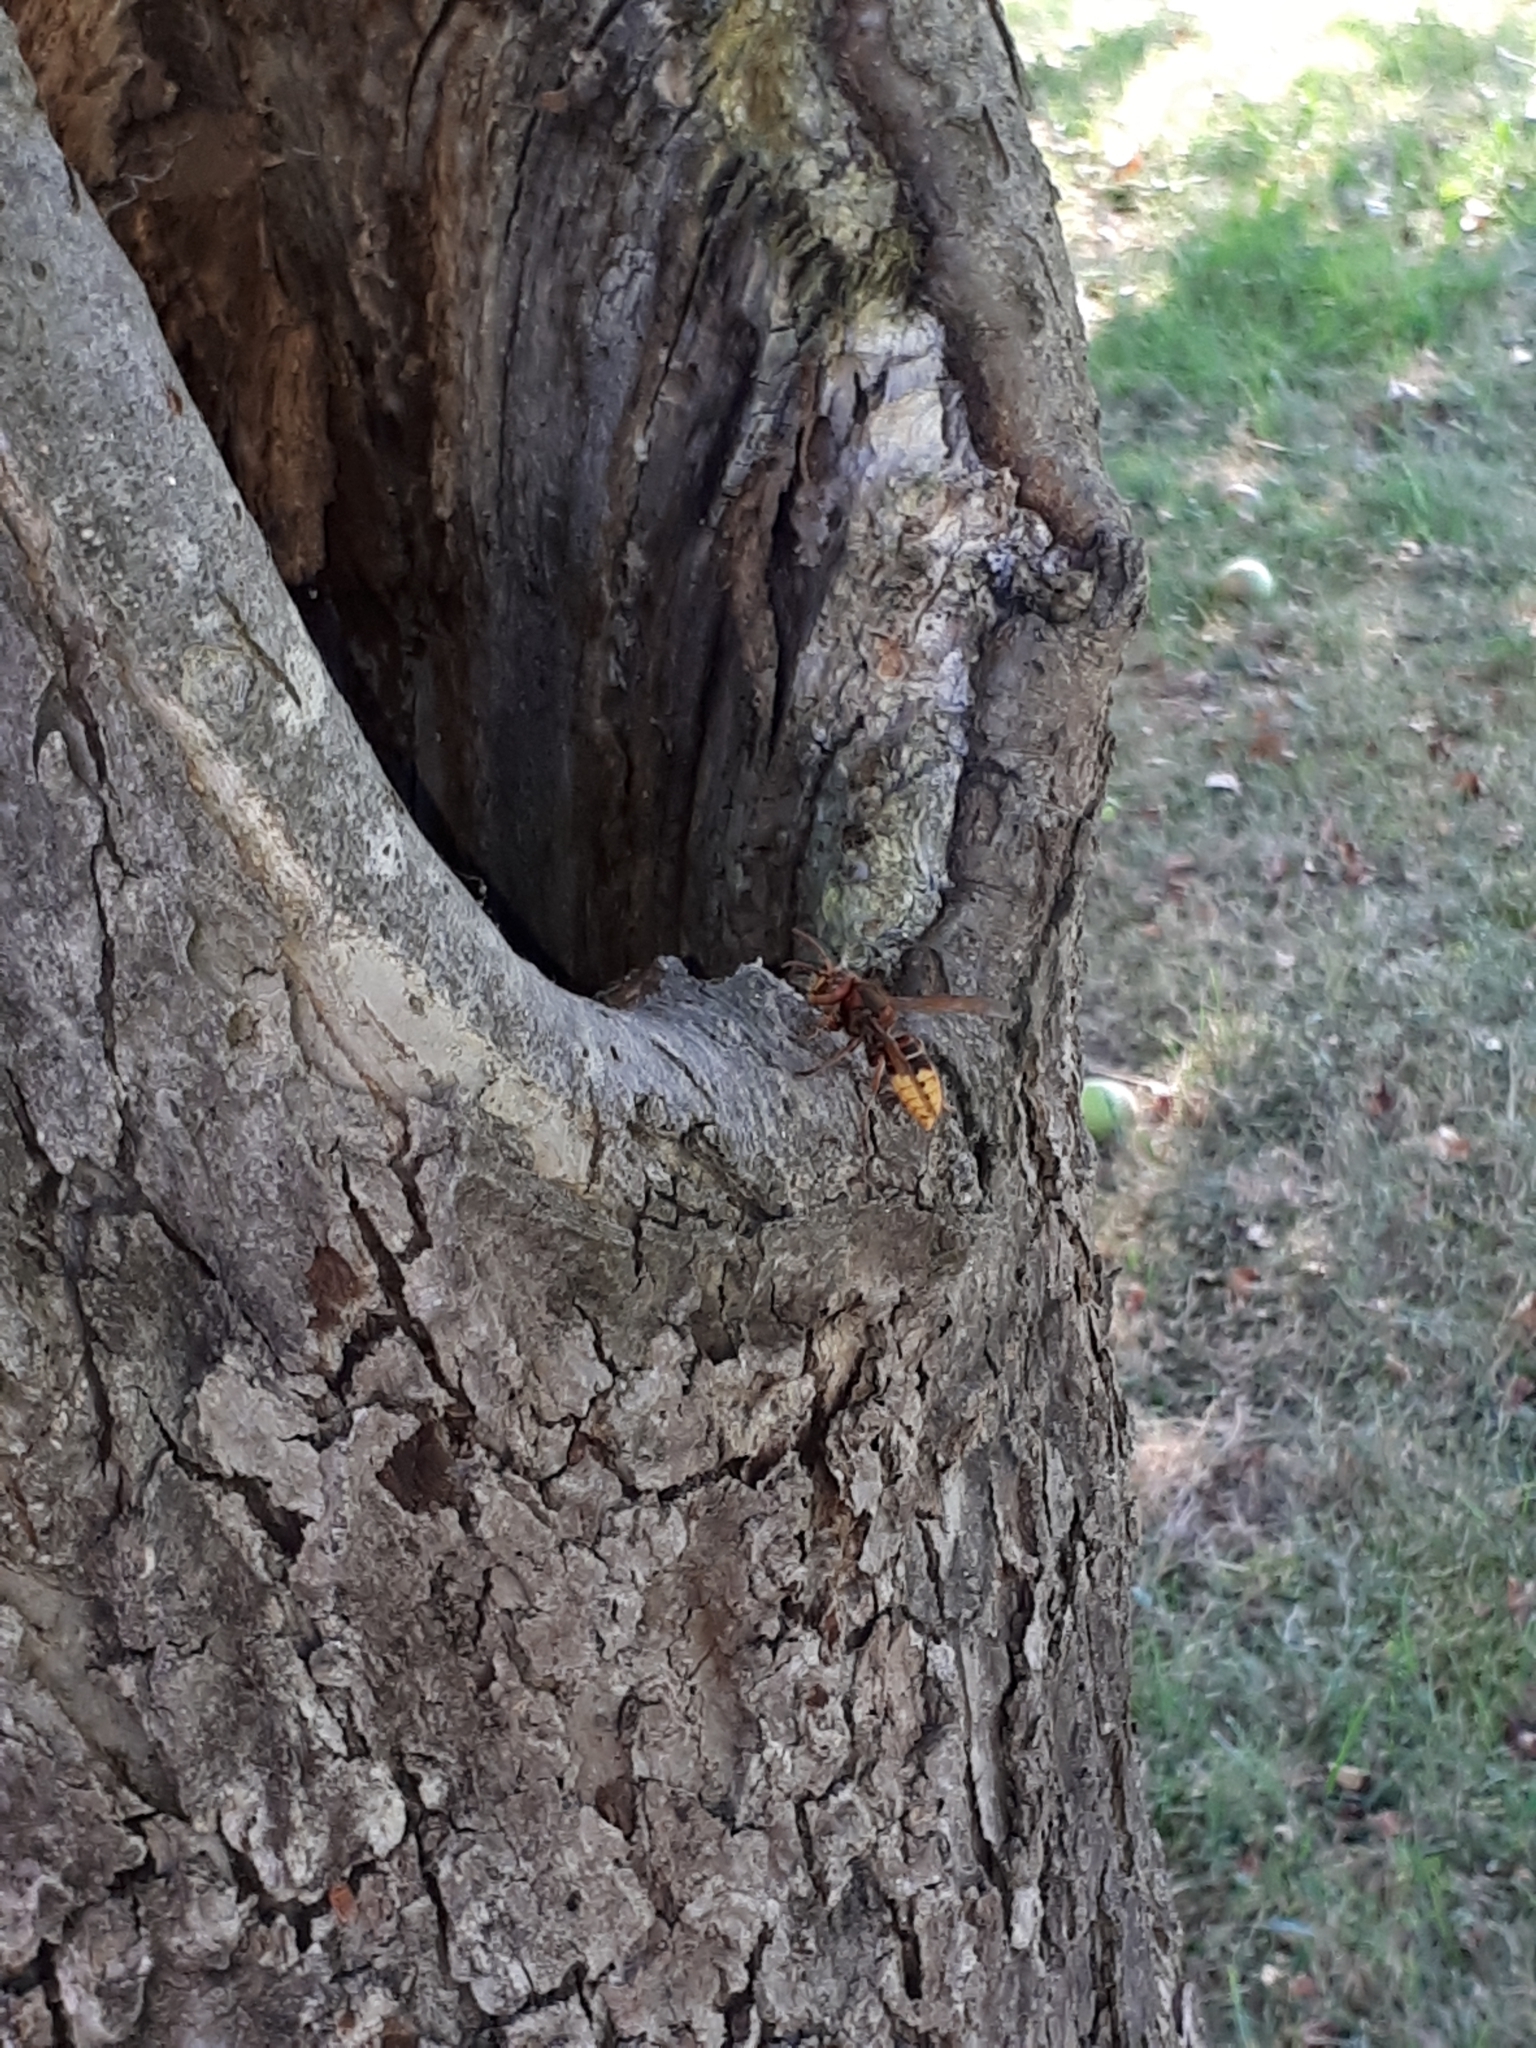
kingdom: Animalia
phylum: Arthropoda
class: Insecta
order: Hymenoptera
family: Vespidae
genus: Vespa
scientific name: Vespa crabro
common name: Hornet
